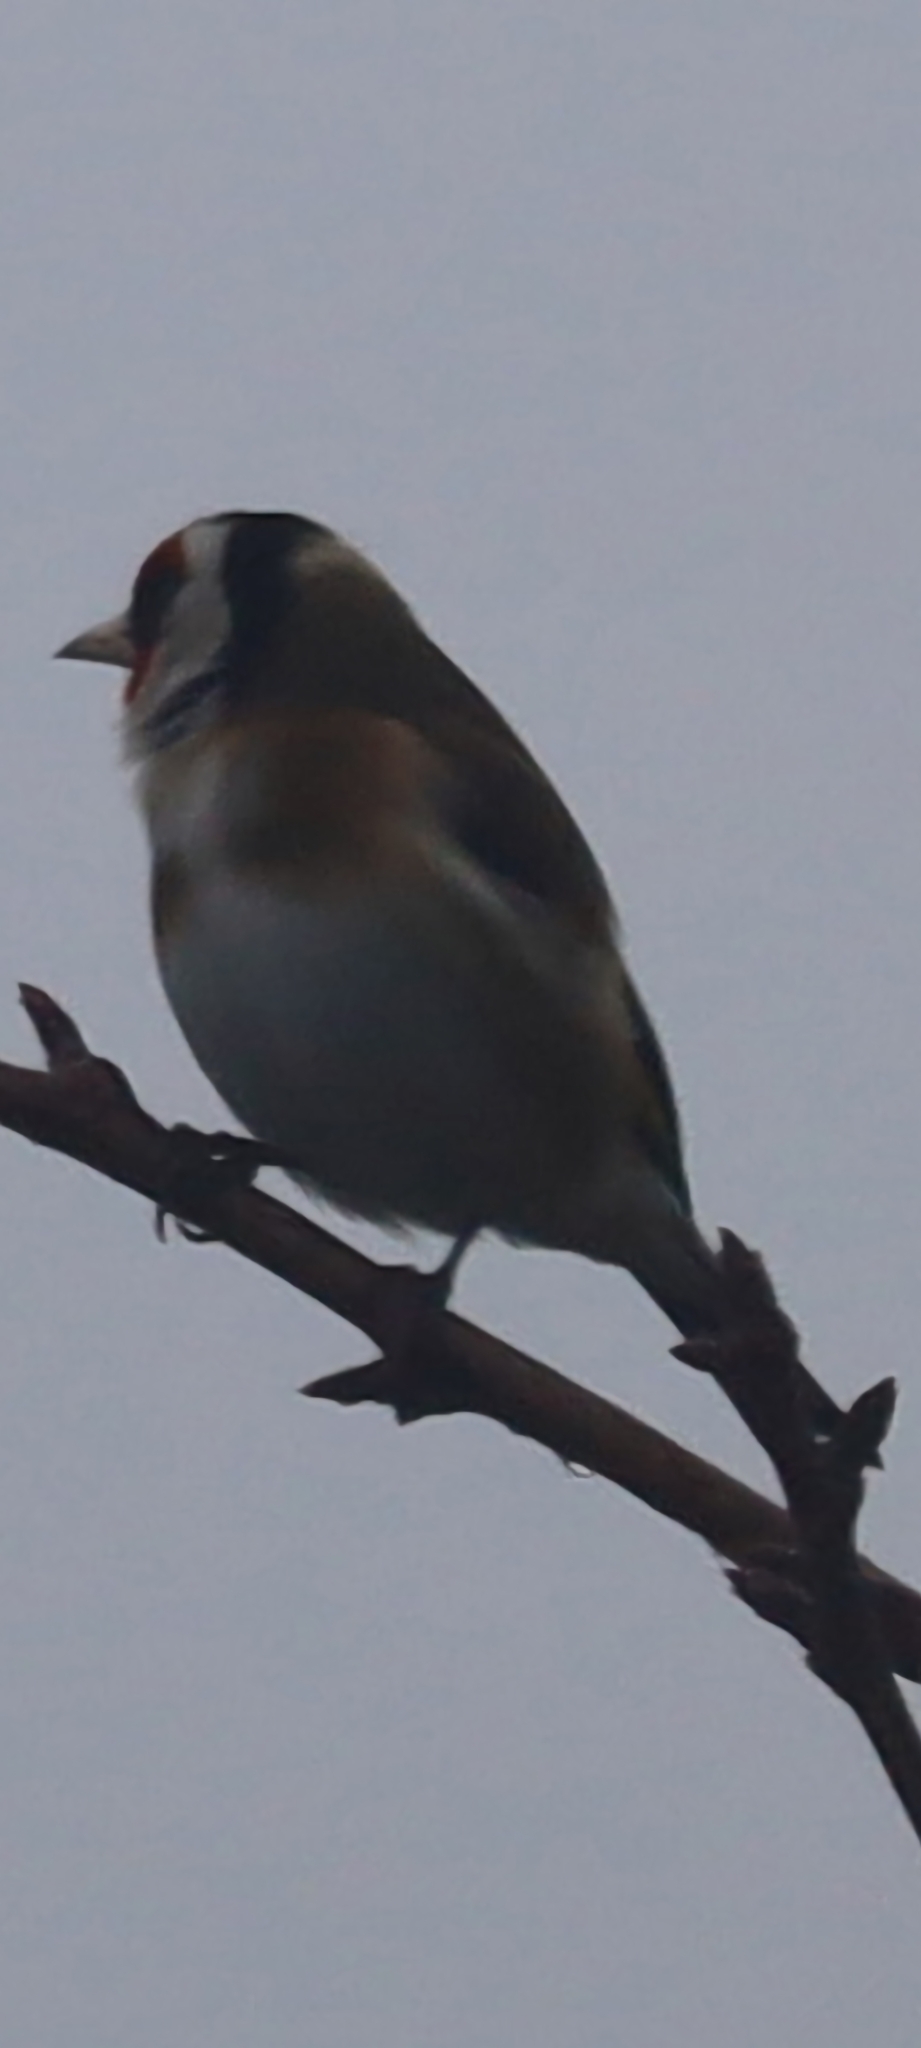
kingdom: Animalia
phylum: Chordata
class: Aves
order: Passeriformes
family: Fringillidae
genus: Carduelis
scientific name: Carduelis carduelis
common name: European goldfinch
